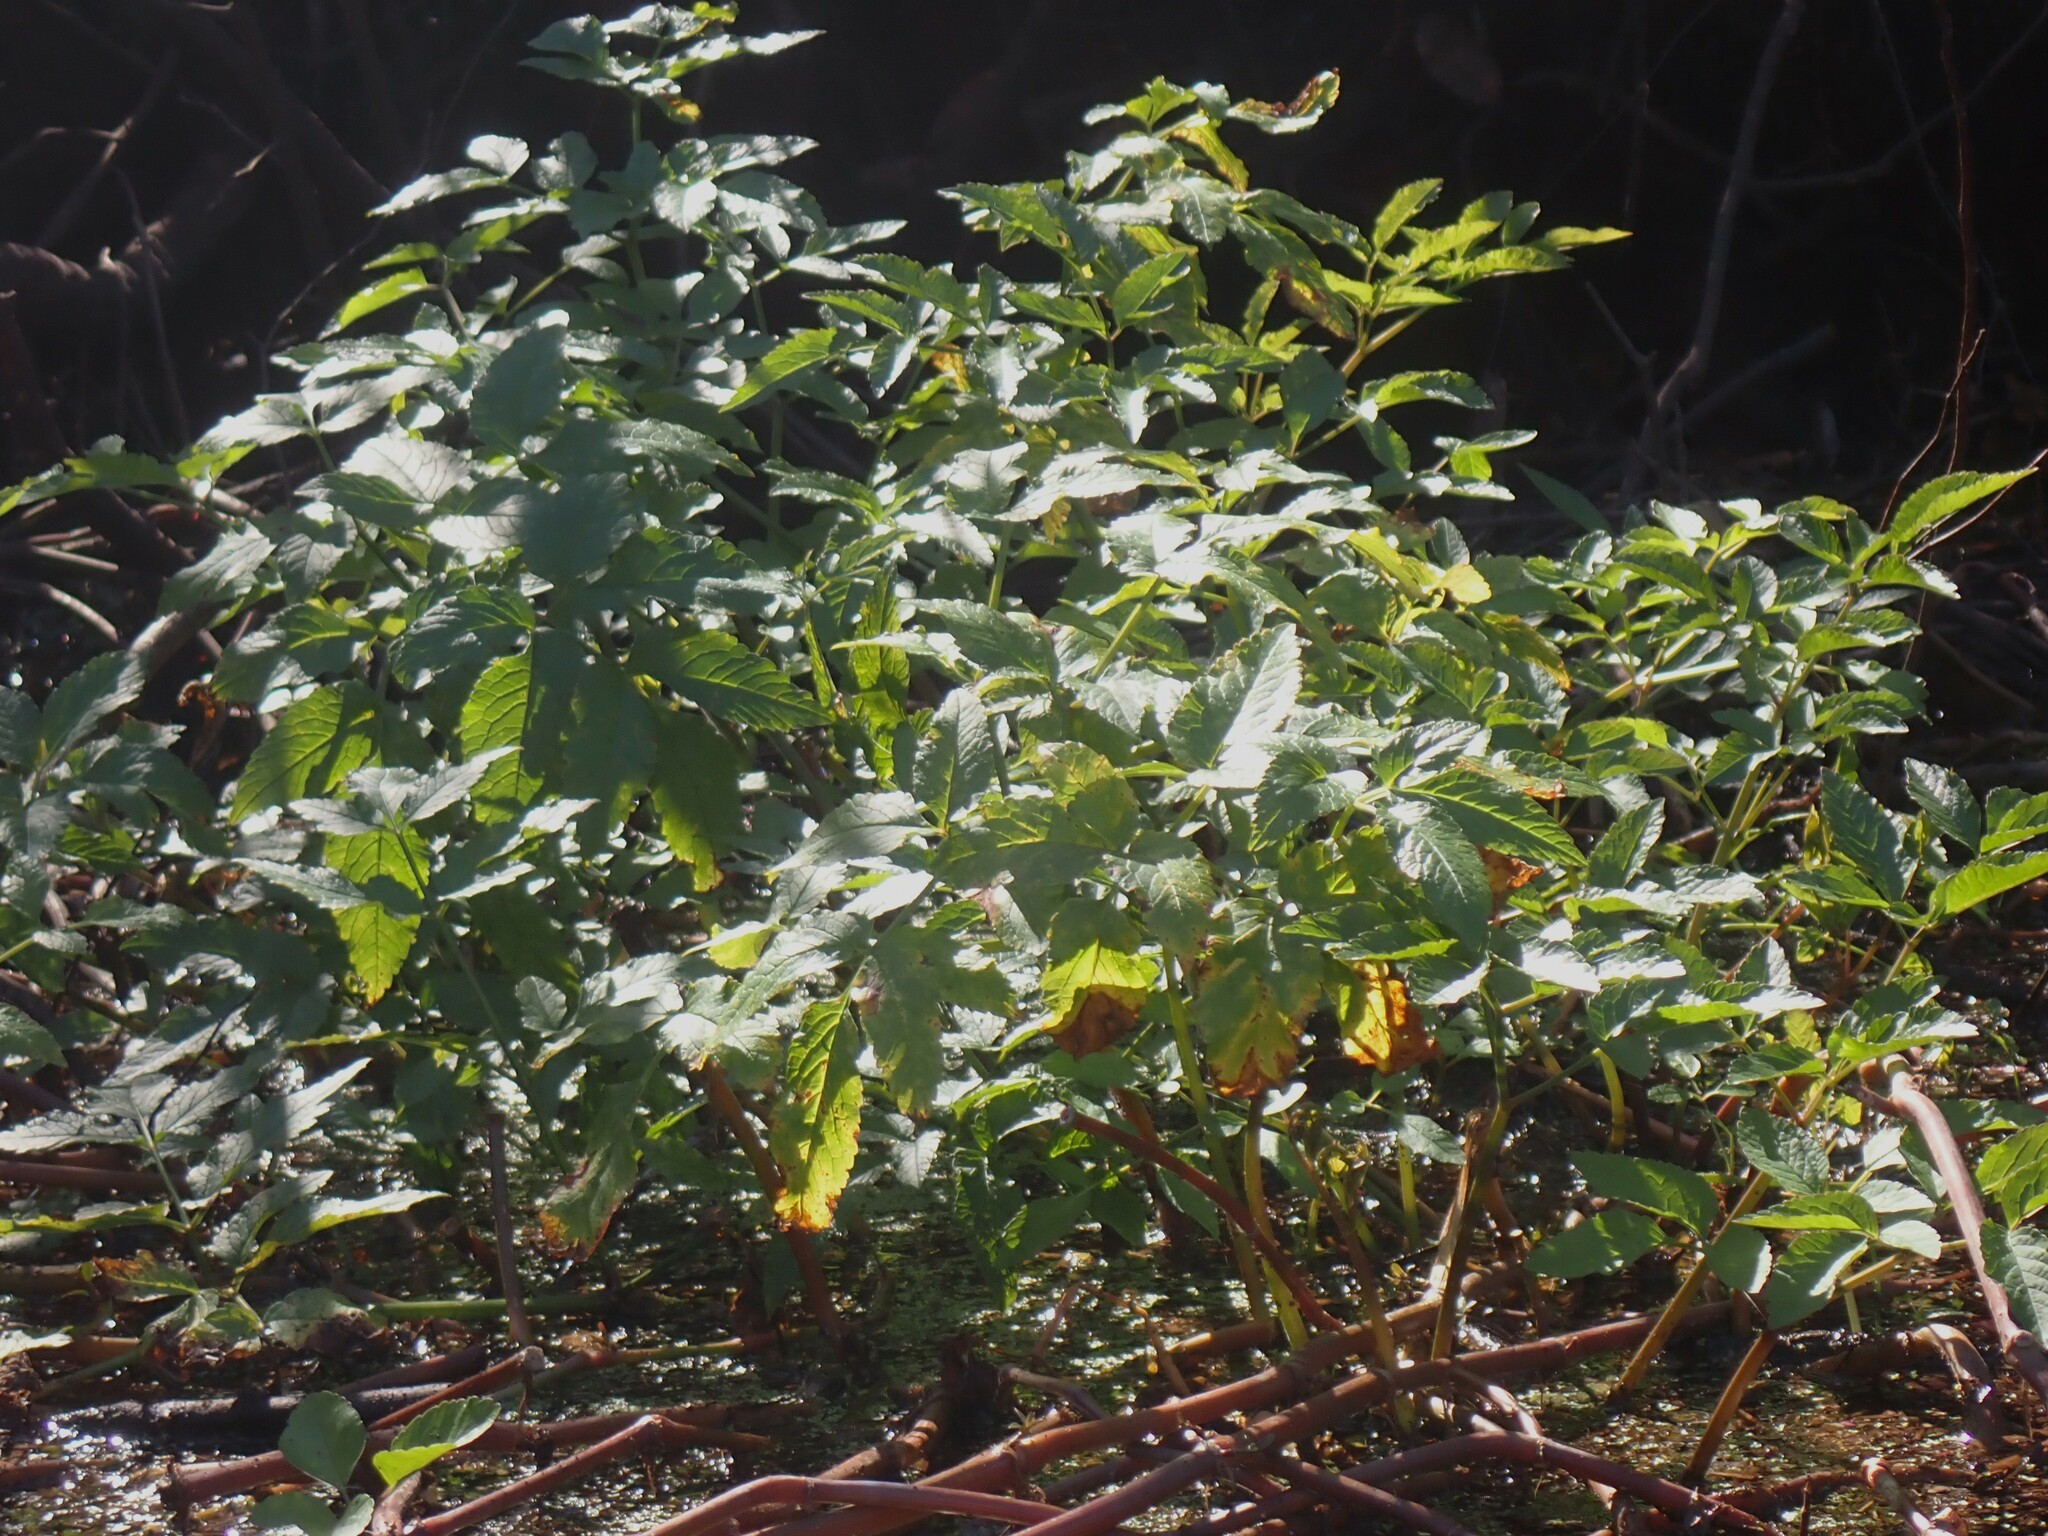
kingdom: Plantae
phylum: Tracheophyta
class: Magnoliopsida
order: Apiales
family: Apiaceae
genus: Cicuta
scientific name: Cicuta maculata
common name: Spotted cowbane
